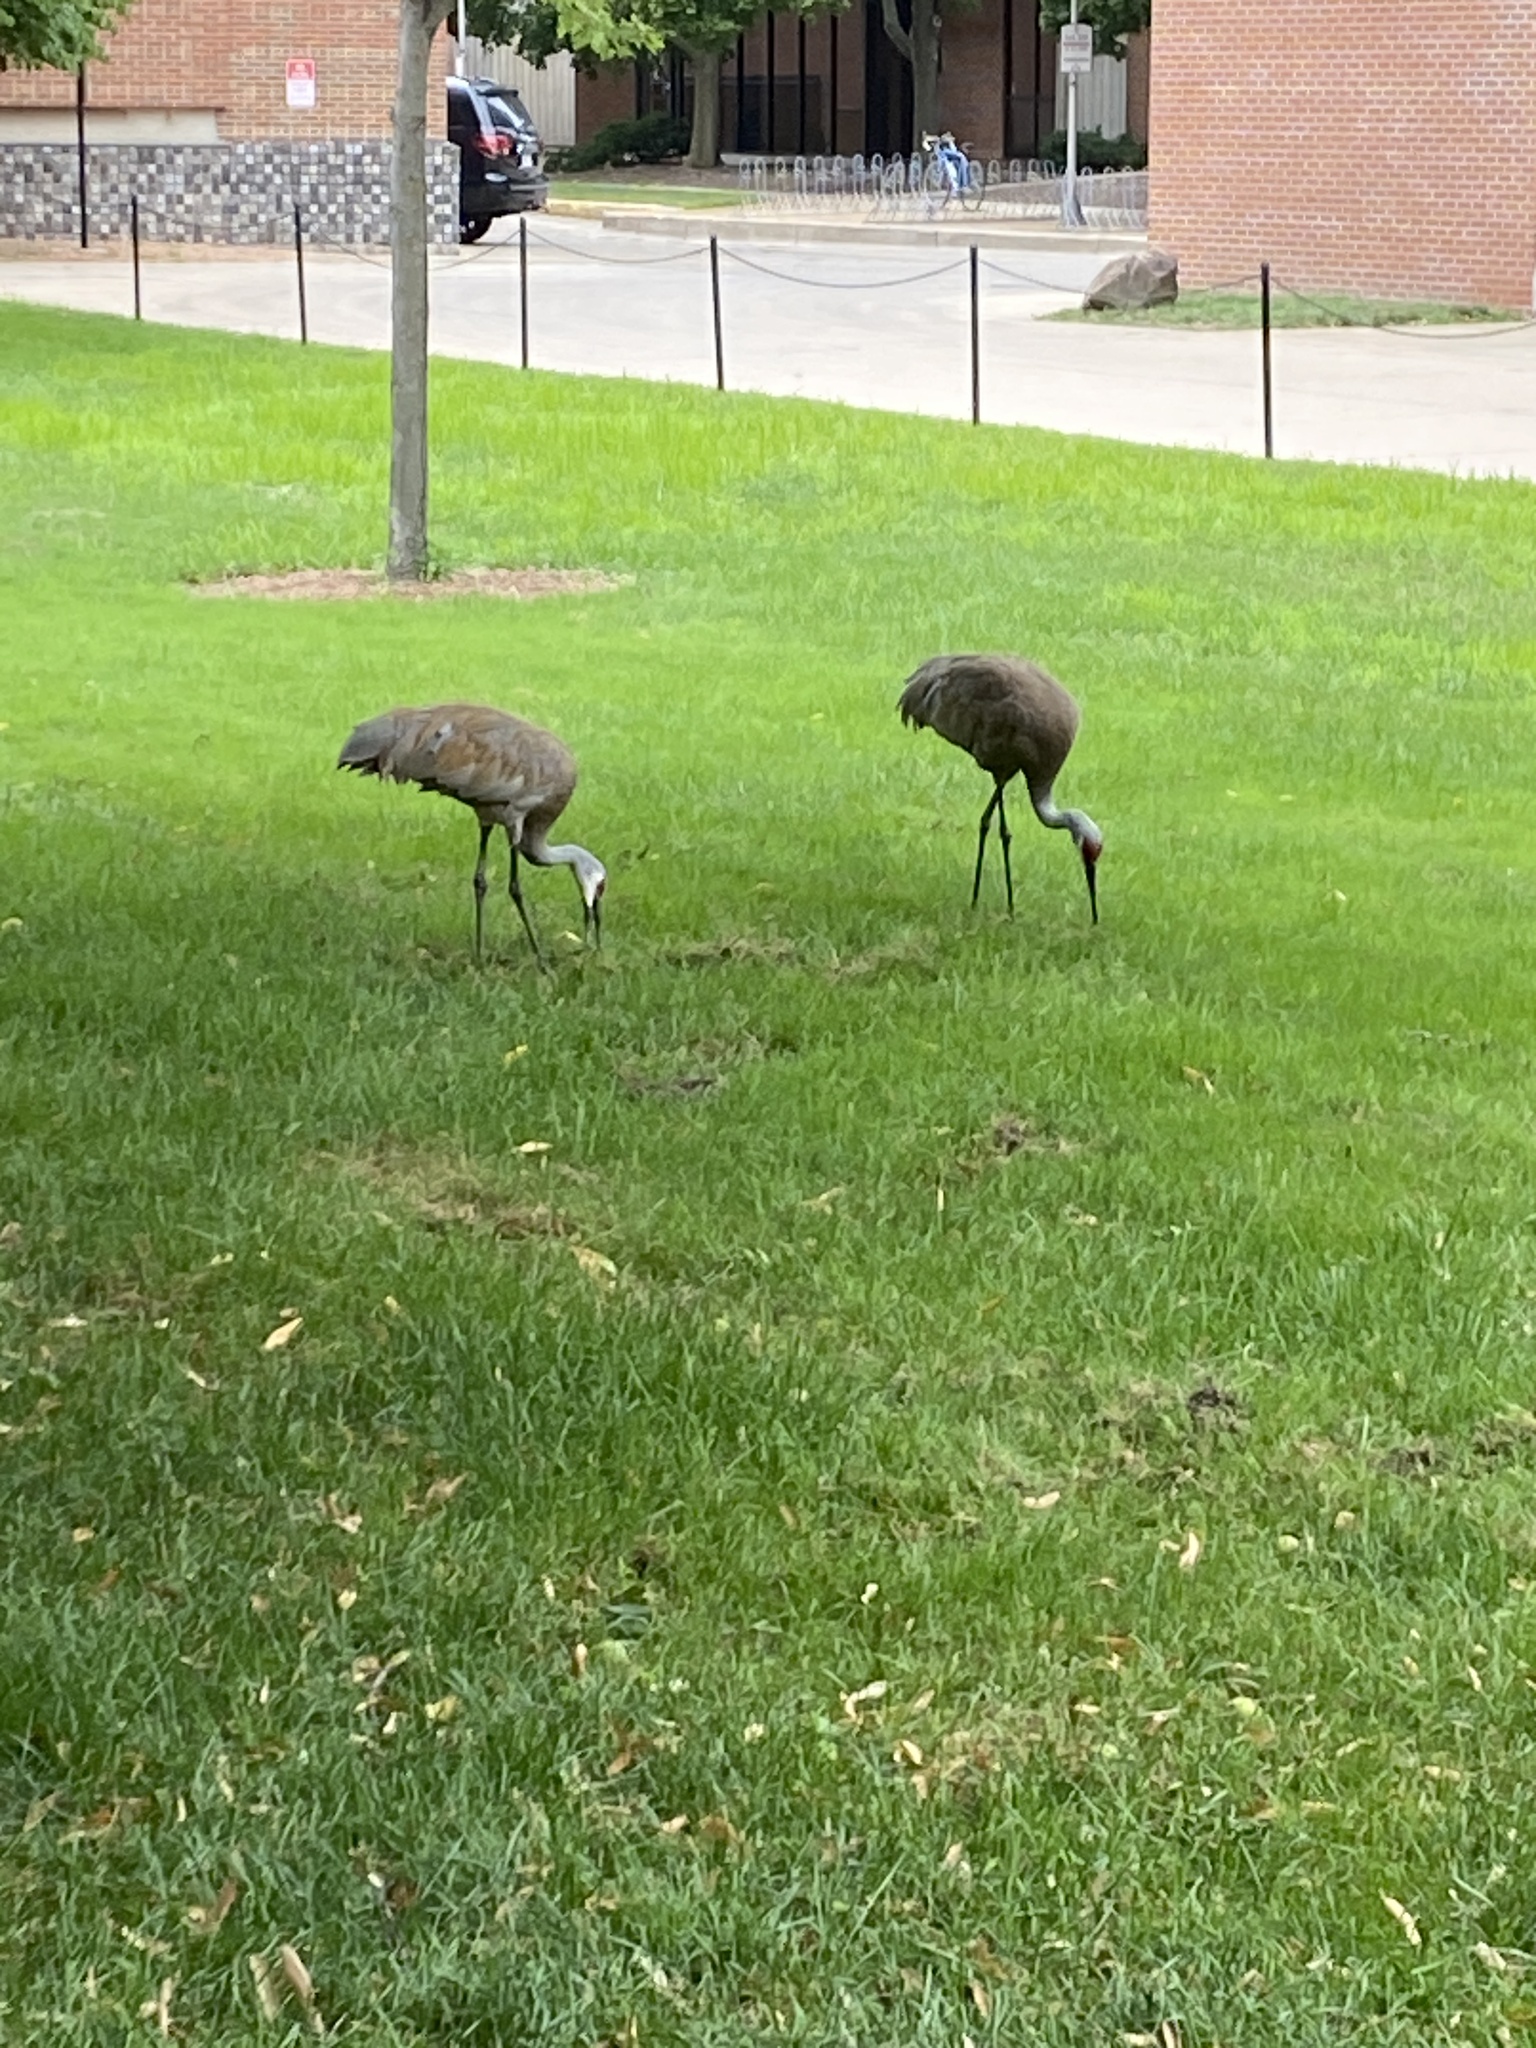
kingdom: Animalia
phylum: Chordata
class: Aves
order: Gruiformes
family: Gruidae
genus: Grus
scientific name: Grus canadensis
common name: Sandhill crane
